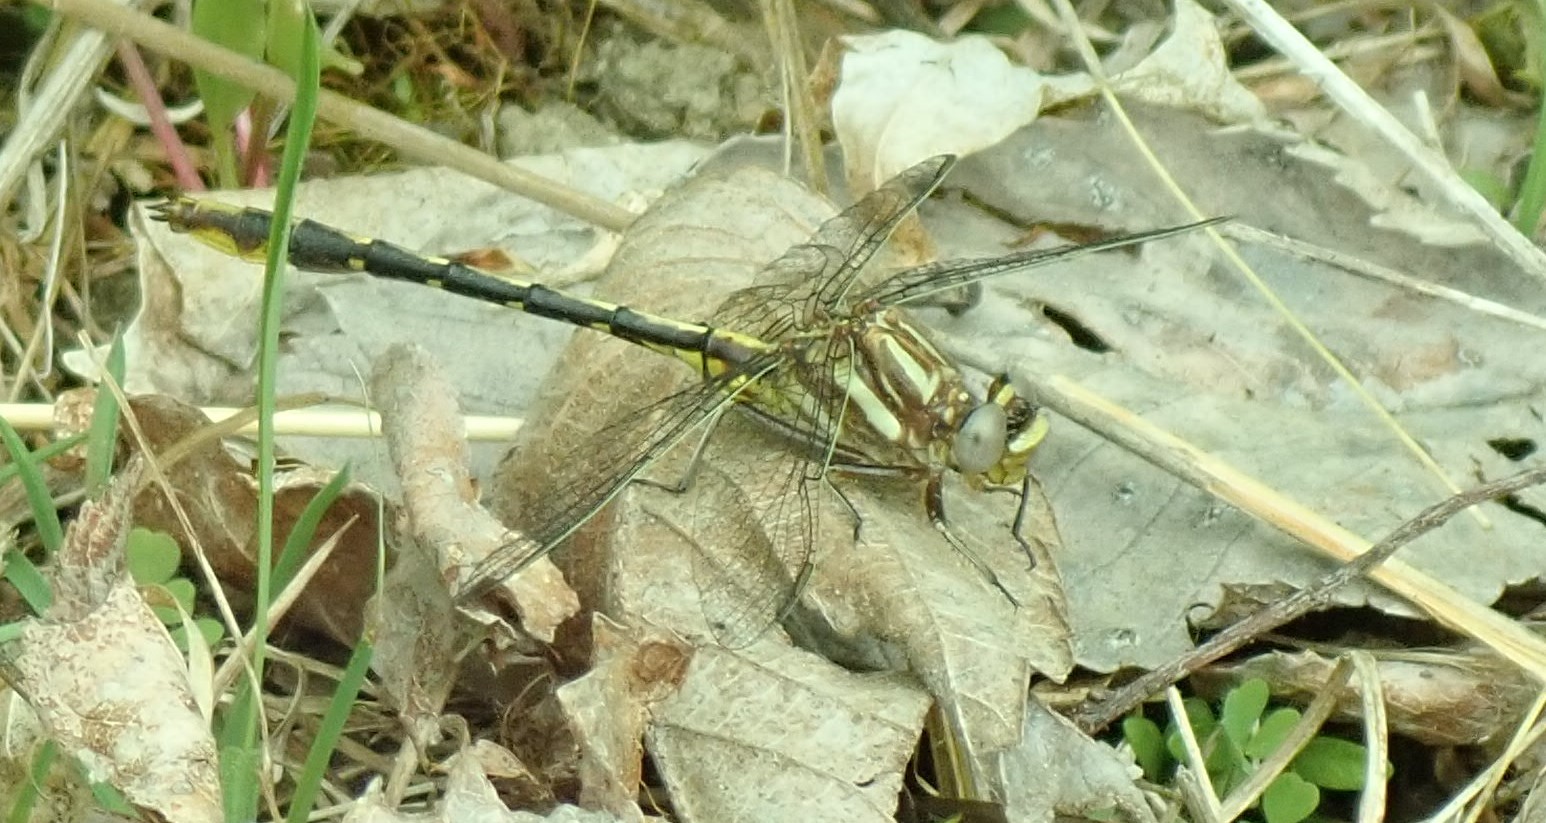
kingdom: Animalia
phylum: Arthropoda
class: Insecta
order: Odonata
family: Gomphidae
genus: Phanogomphus
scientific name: Phanogomphus exilis
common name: Lancet clubtail
